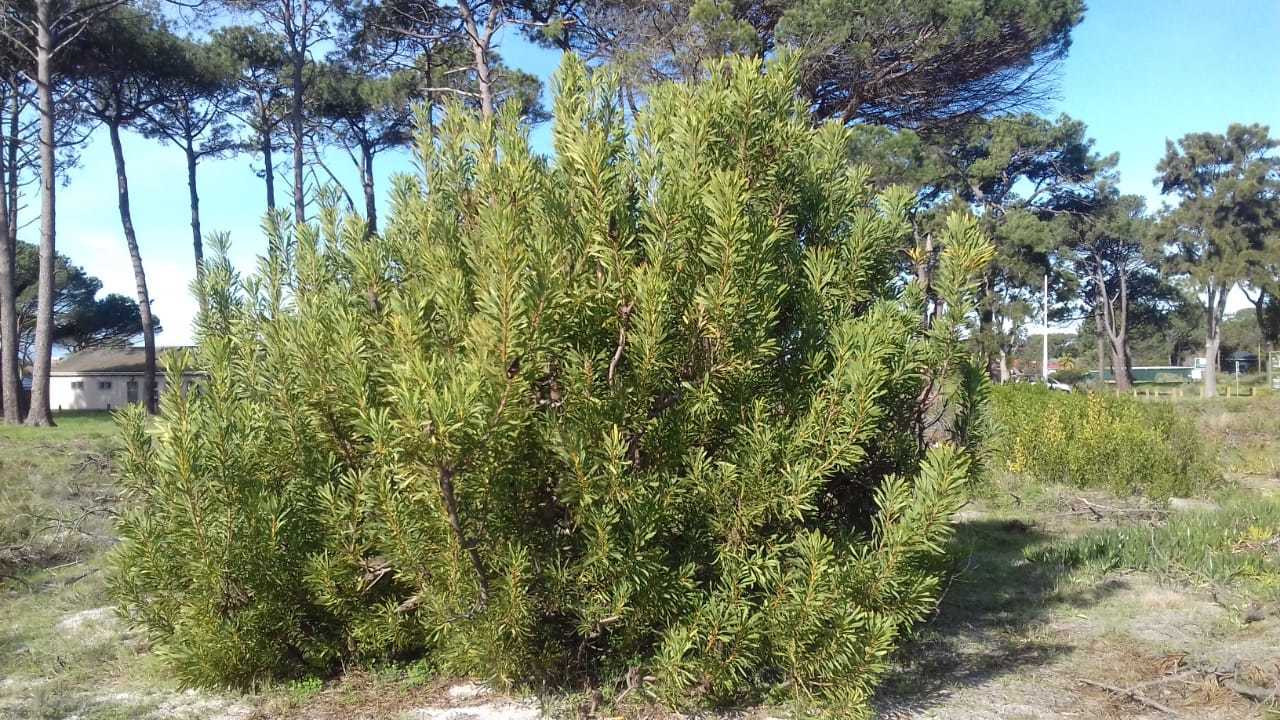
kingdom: Plantae
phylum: Tracheophyta
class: Magnoliopsida
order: Proteales
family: Proteaceae
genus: Protea
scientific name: Protea repens
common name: Sugarbush
